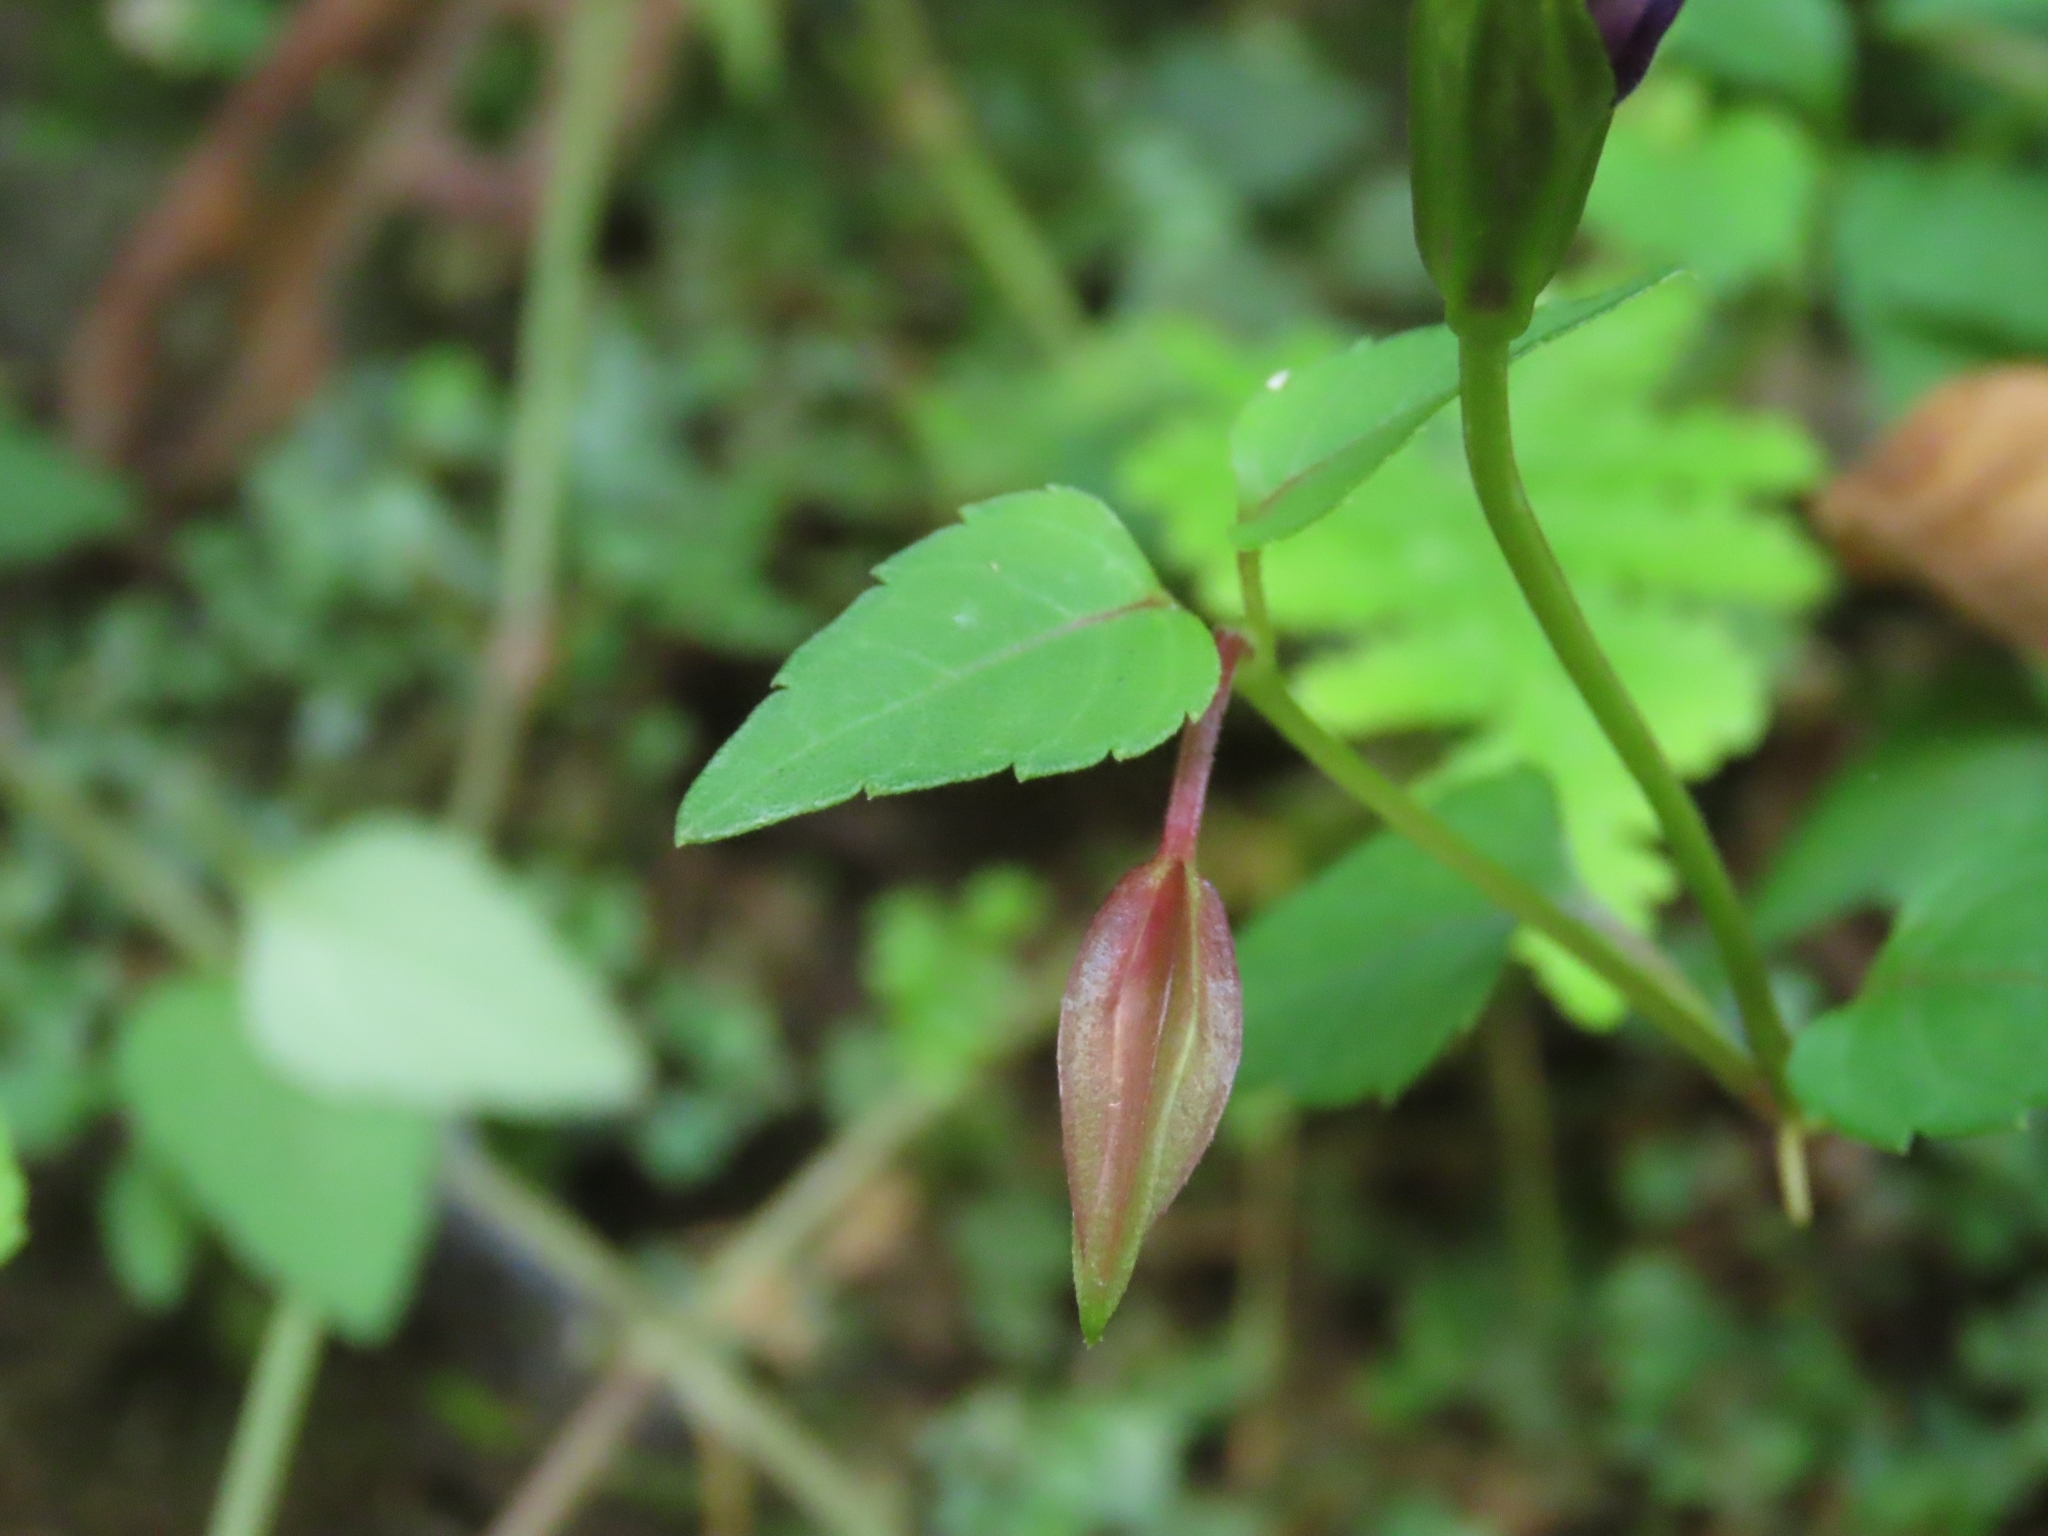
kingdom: Plantae
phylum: Tracheophyta
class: Magnoliopsida
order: Lamiales
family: Linderniaceae
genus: Torenia
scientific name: Torenia concolor
